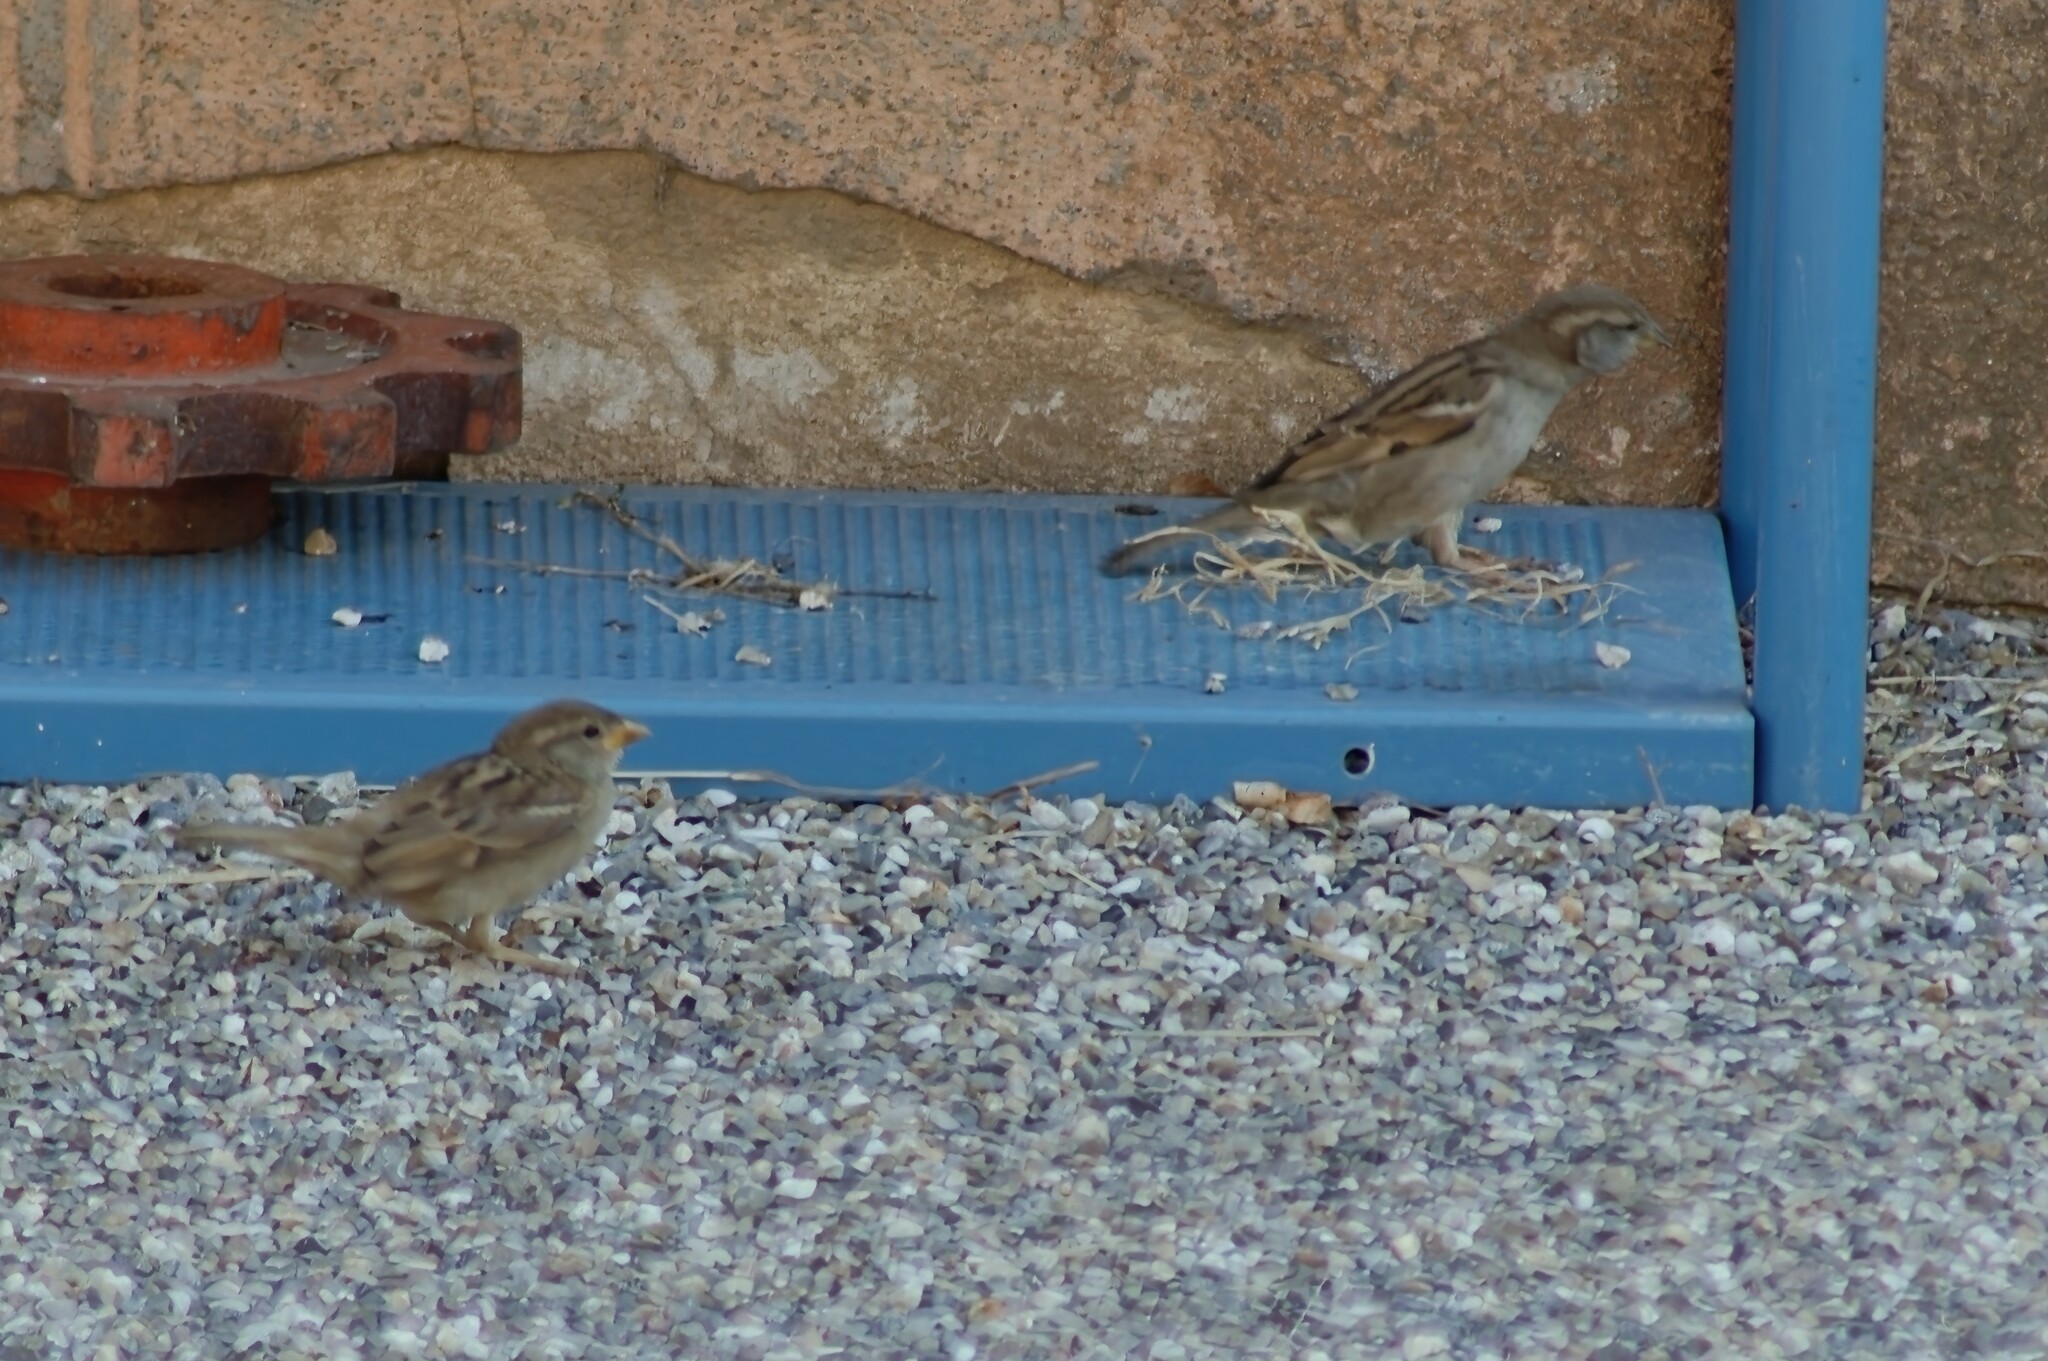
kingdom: Animalia
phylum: Chordata
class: Aves
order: Passeriformes
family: Passeridae
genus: Passer
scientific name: Passer domesticus
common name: House sparrow
